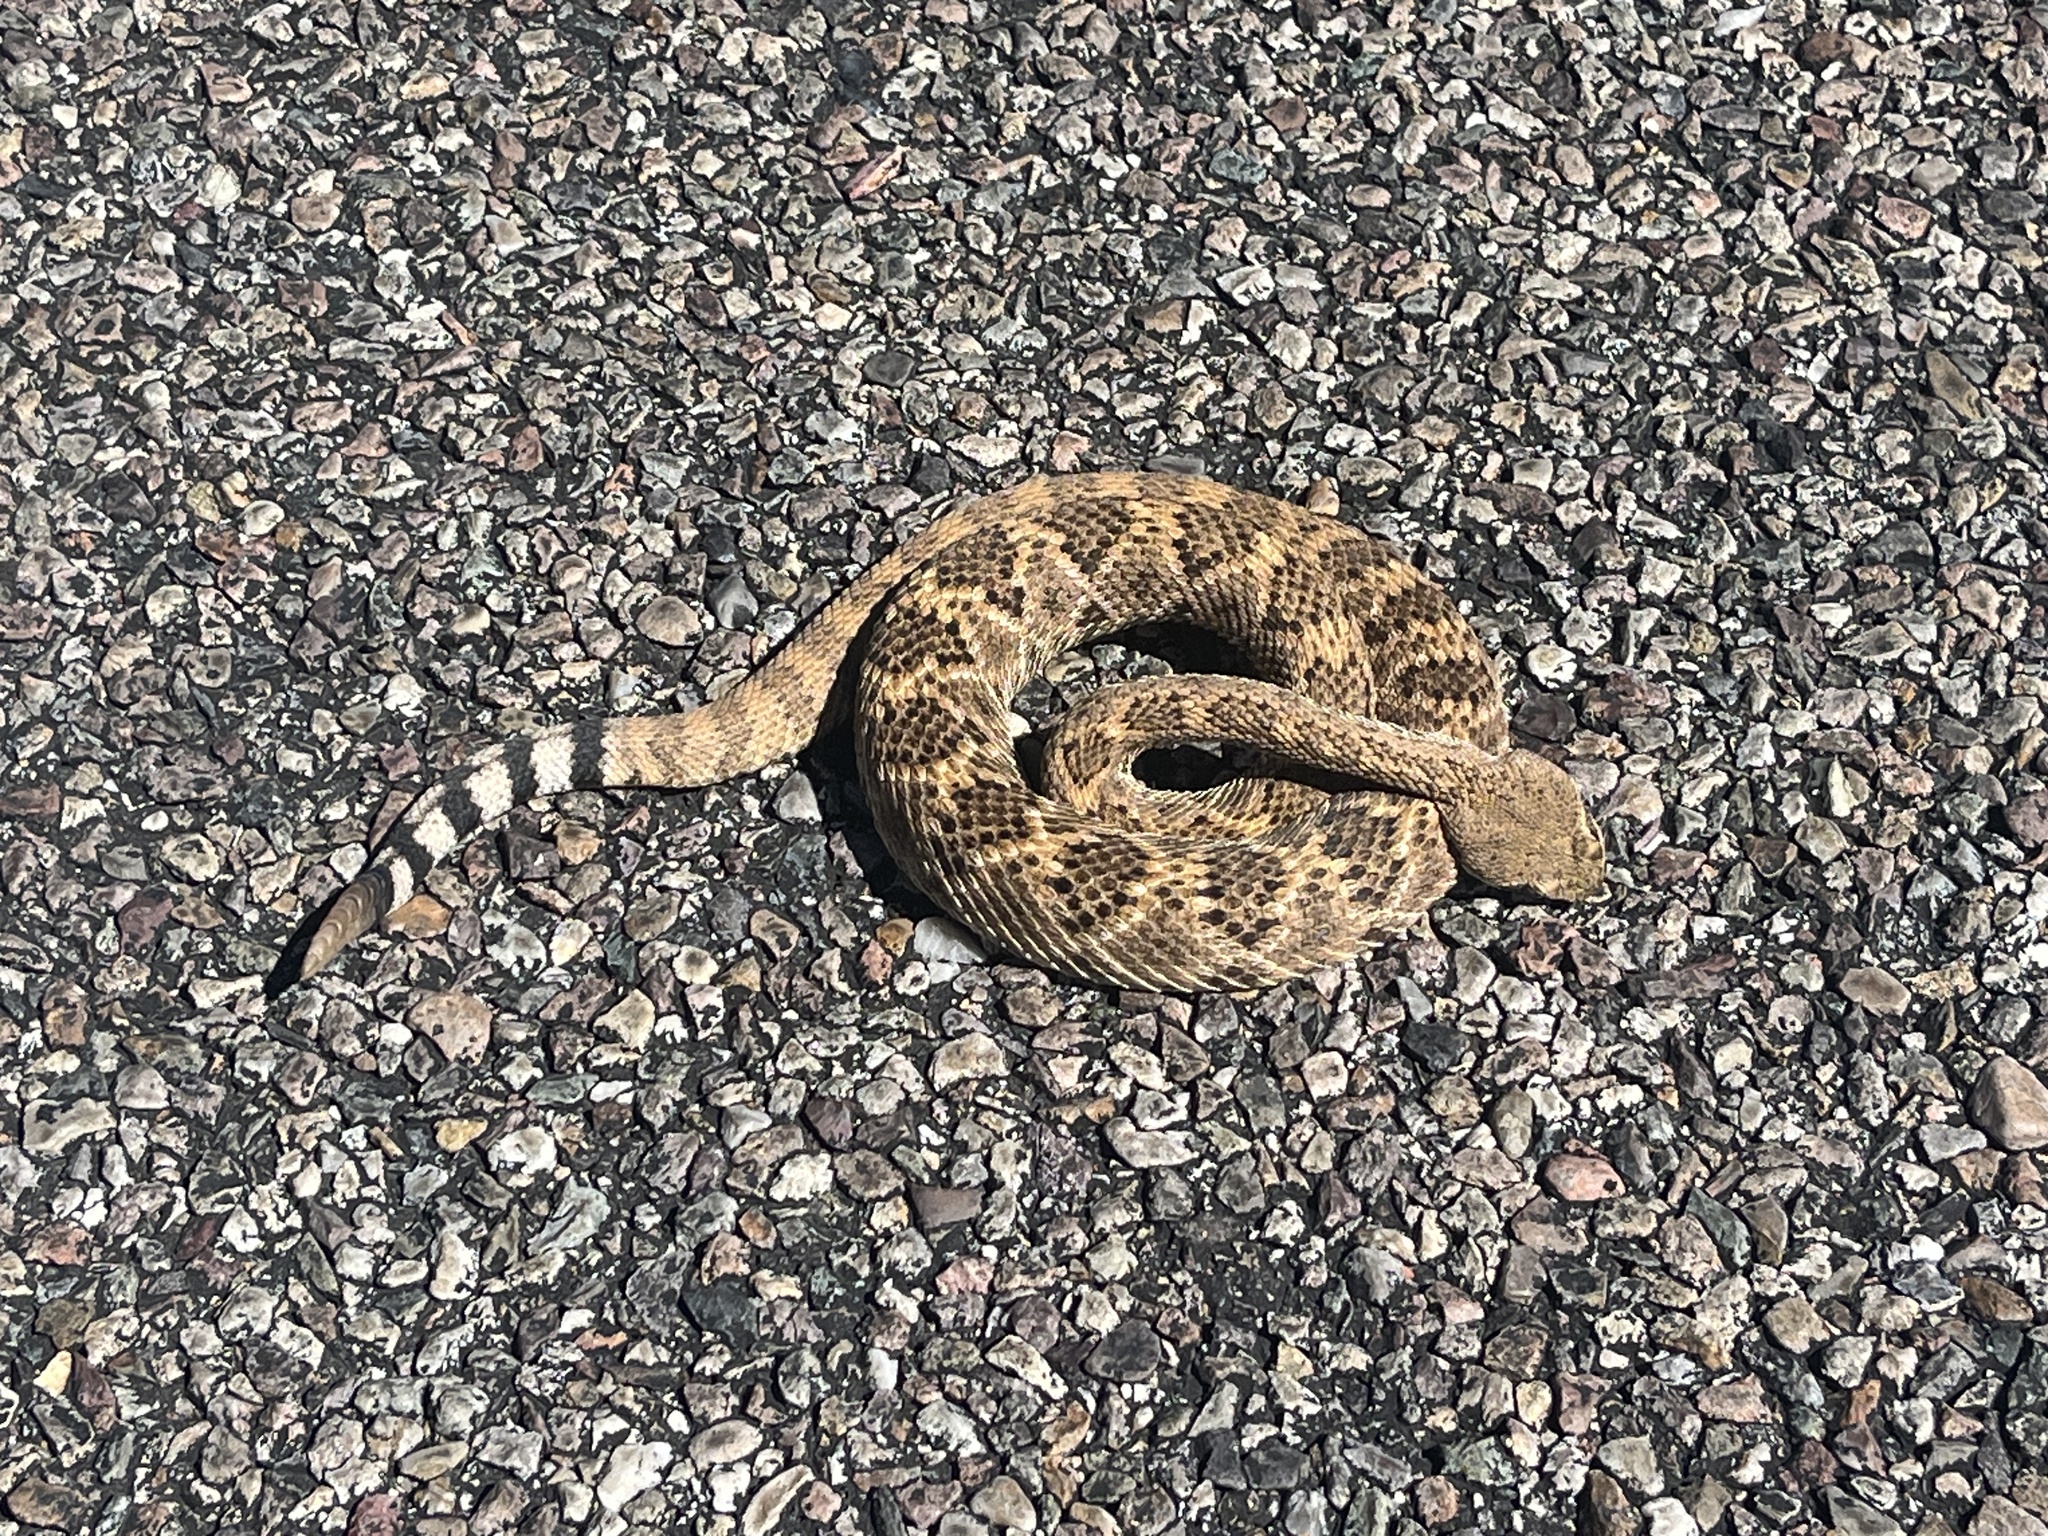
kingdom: Animalia
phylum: Chordata
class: Squamata
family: Viperidae
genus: Crotalus
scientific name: Crotalus atrox
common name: Western diamond-backed rattlesnake
